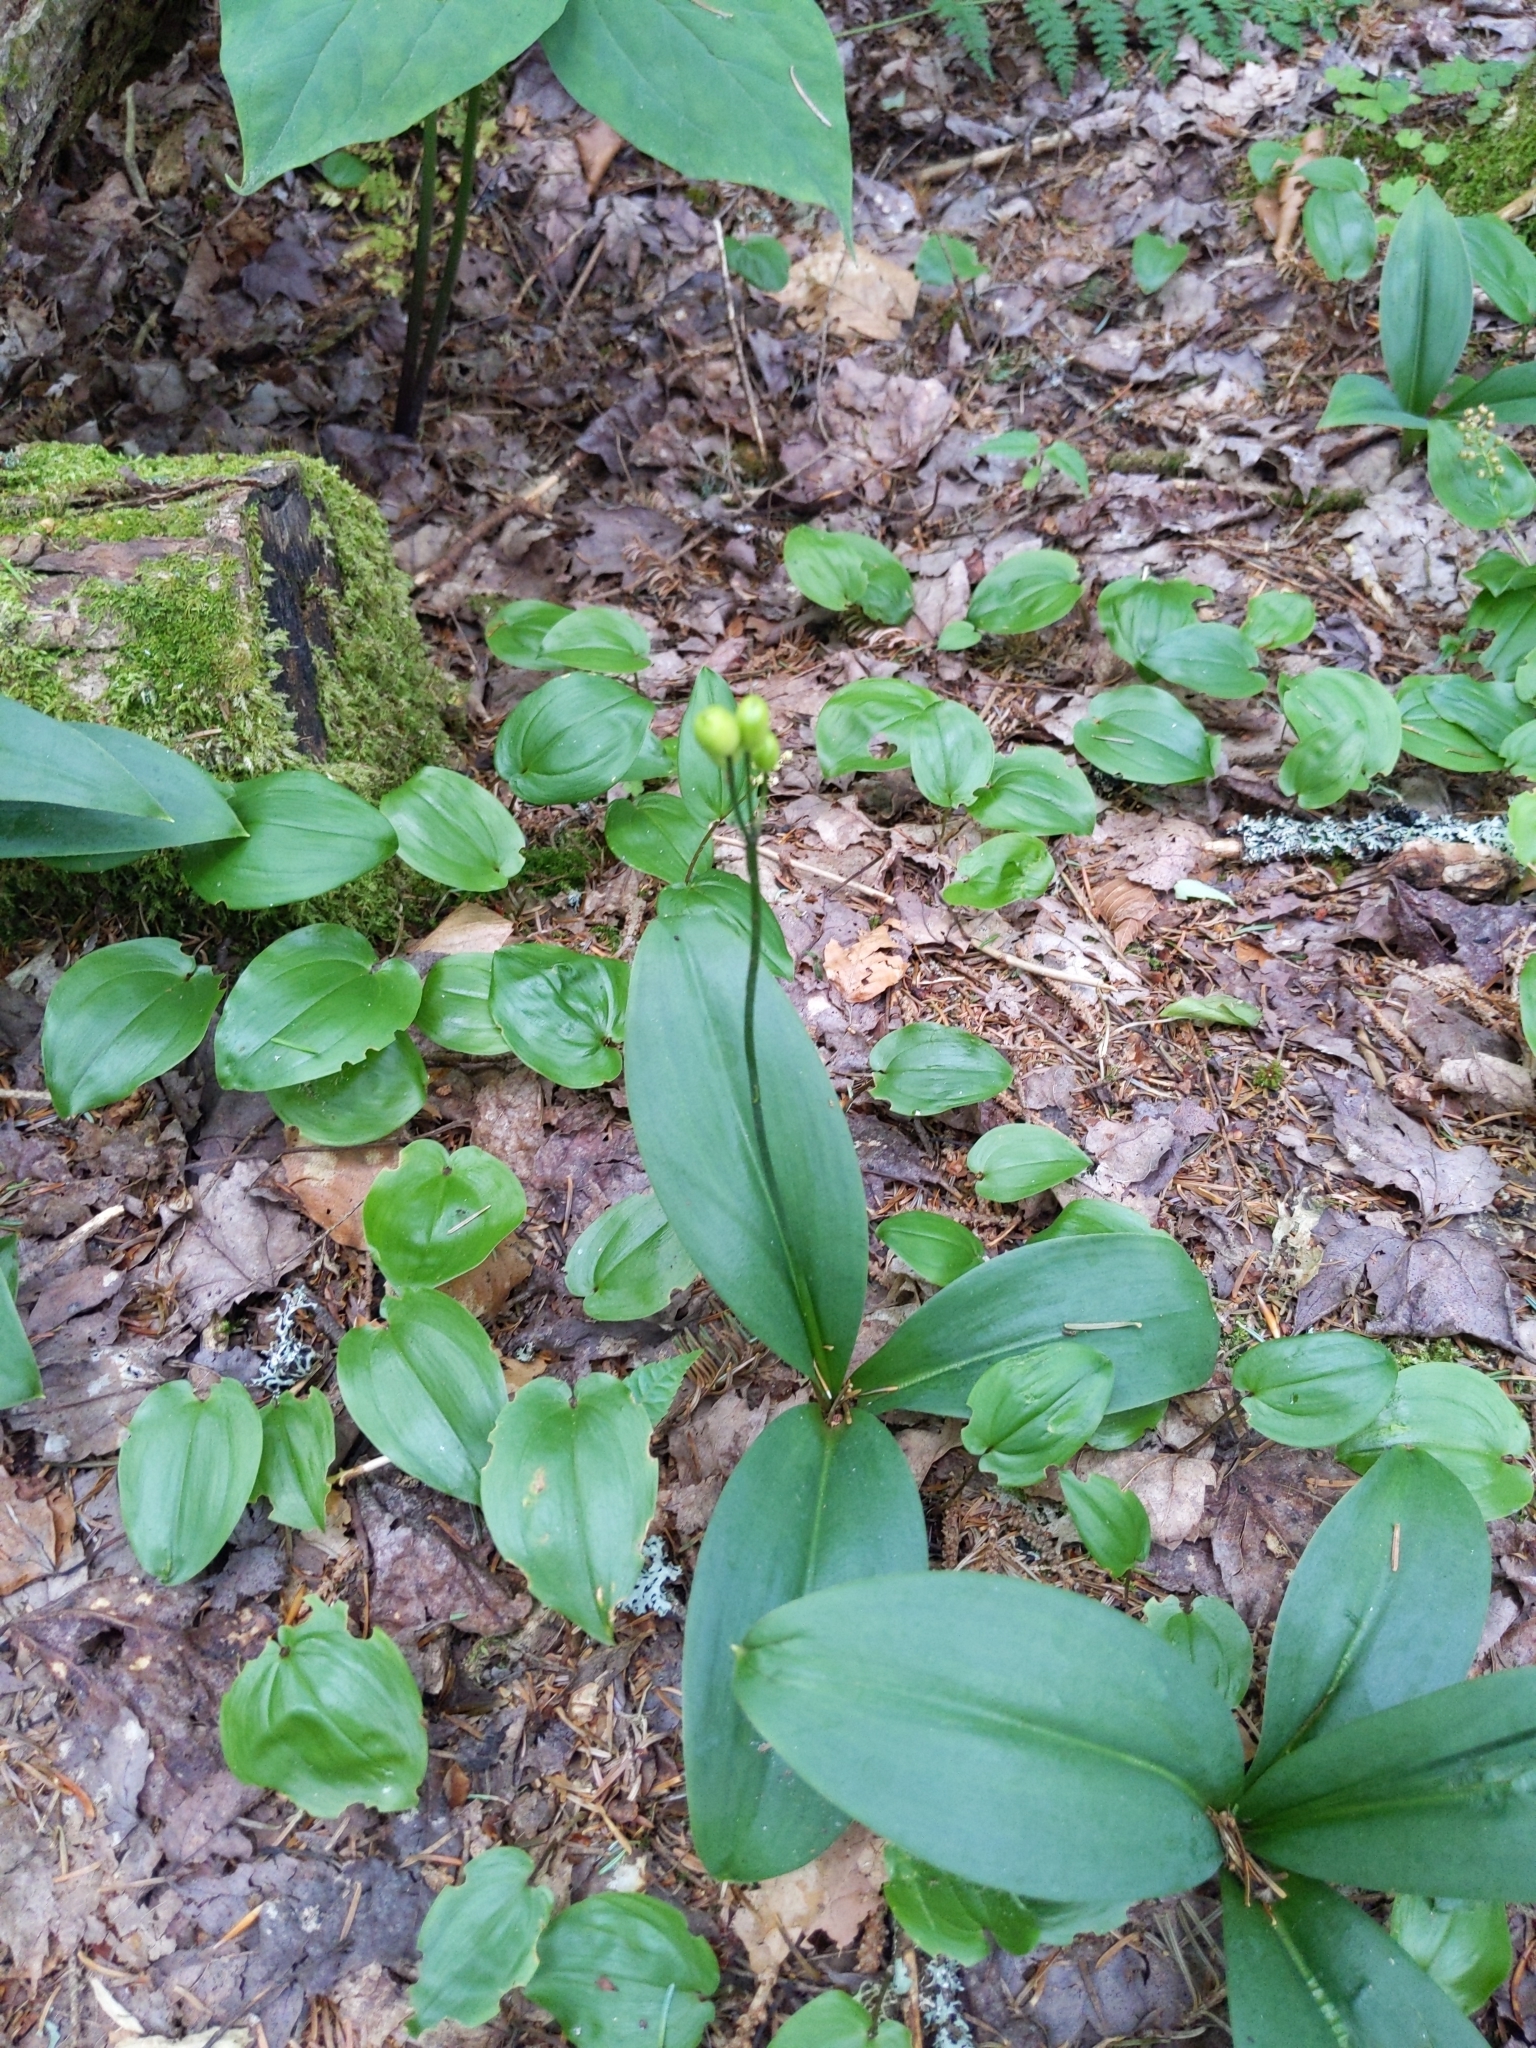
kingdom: Plantae
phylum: Tracheophyta
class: Liliopsida
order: Liliales
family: Liliaceae
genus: Clintonia
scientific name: Clintonia borealis
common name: Yellow clintonia
